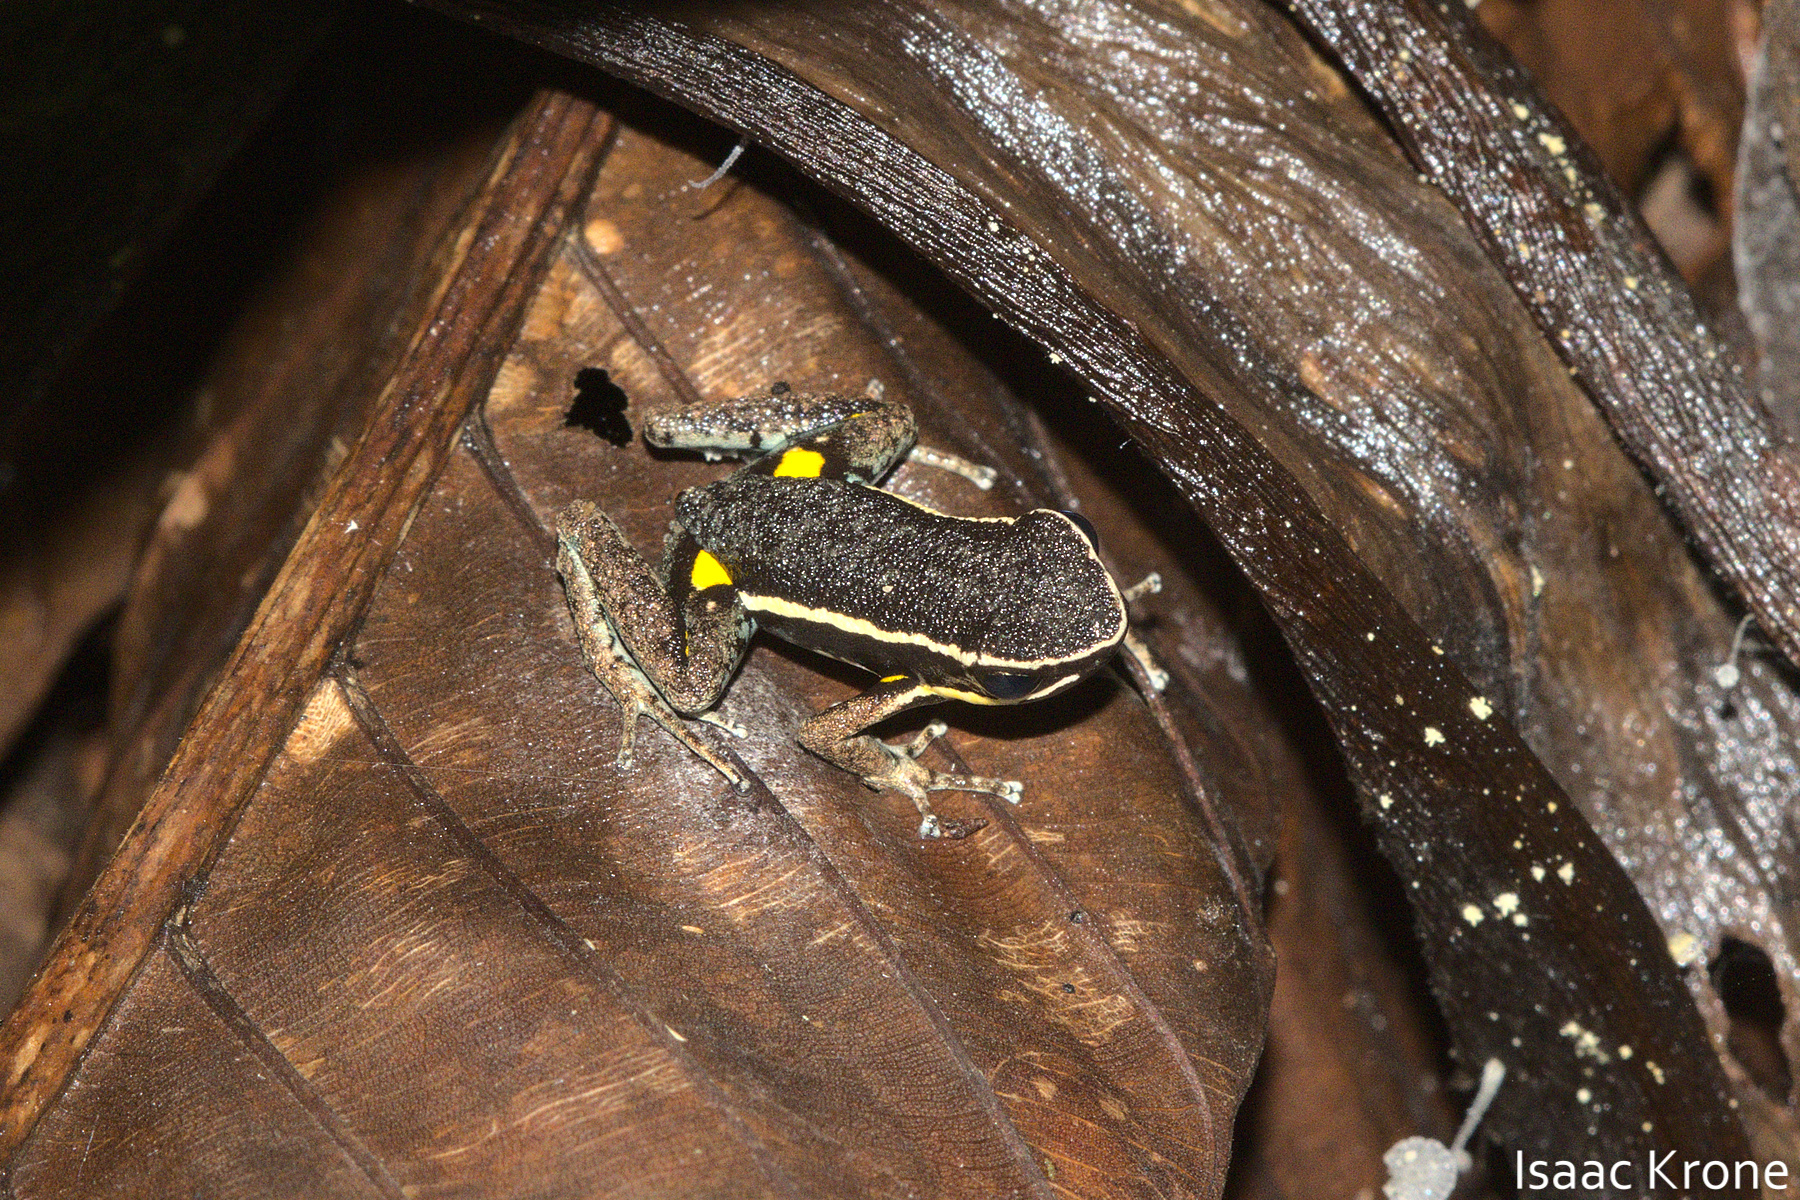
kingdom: Animalia
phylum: Chordata
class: Amphibia
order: Anura
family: Dendrobatidae
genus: Ameerega
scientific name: Ameerega hahneli
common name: Yurimaguas pioson frog
